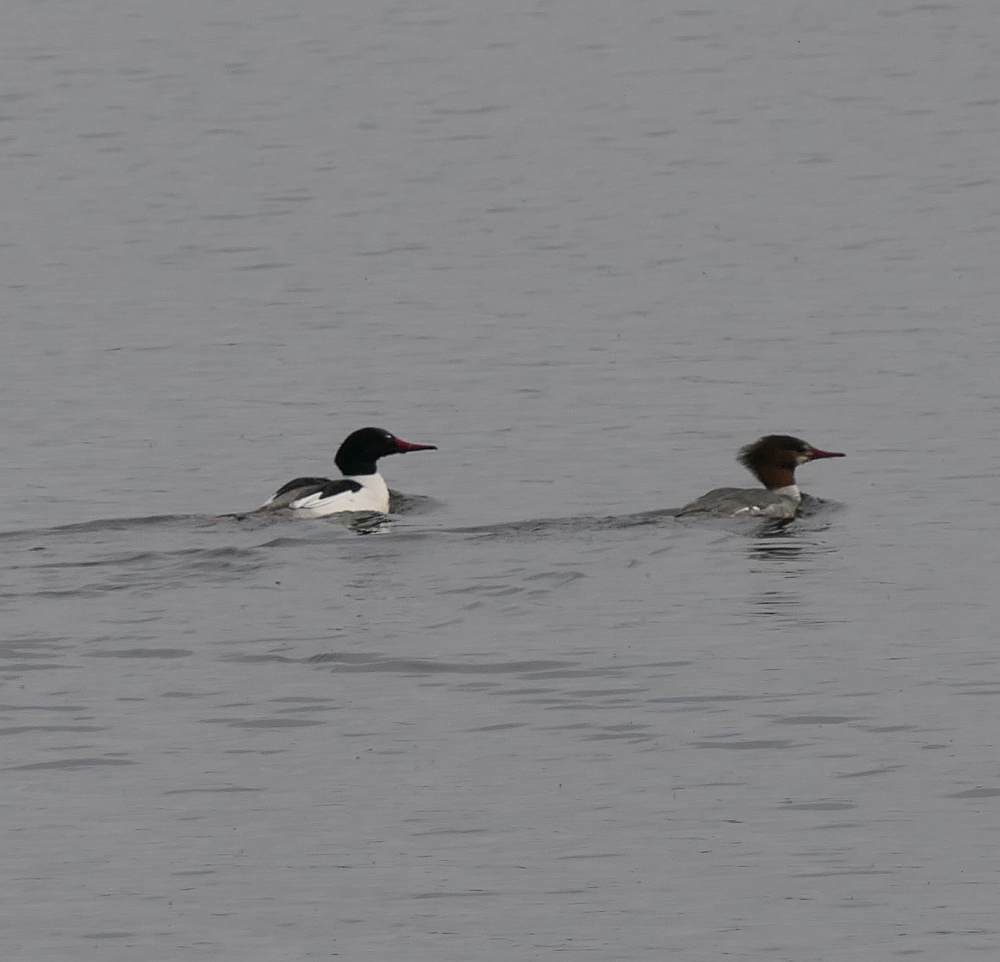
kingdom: Animalia
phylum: Chordata
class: Aves
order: Anseriformes
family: Anatidae
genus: Mergus
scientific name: Mergus merganser
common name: Common merganser
